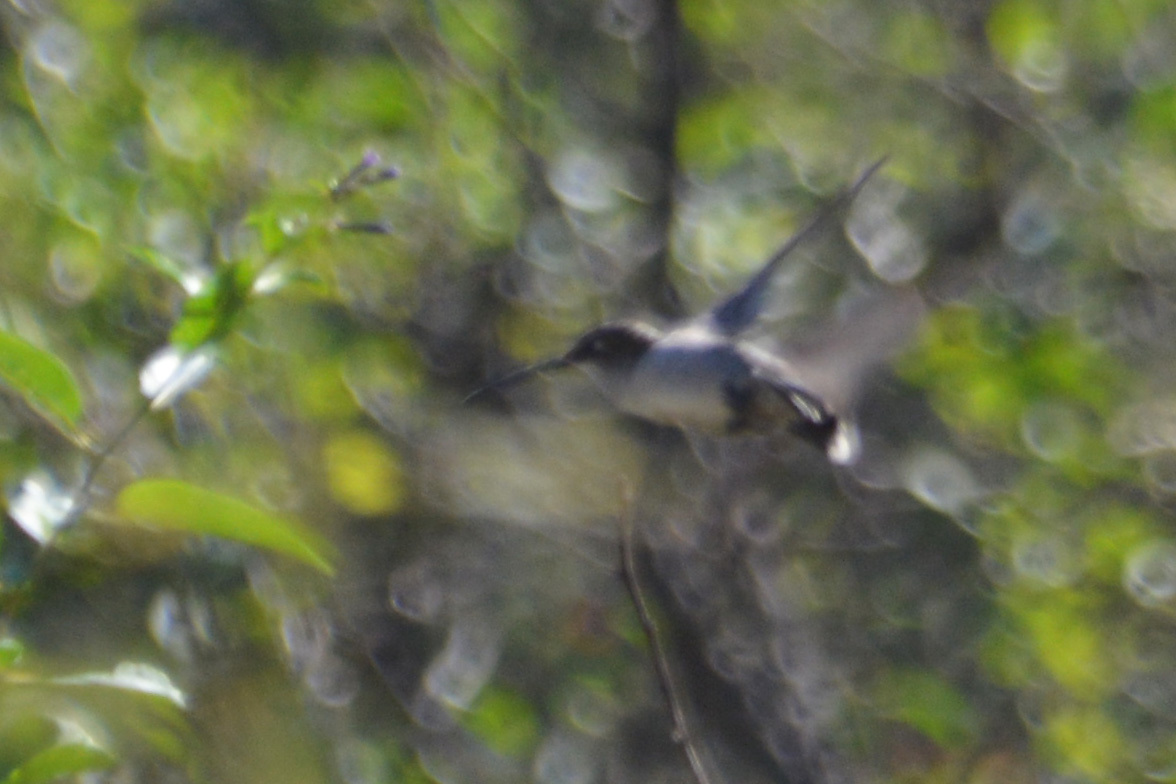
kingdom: Animalia
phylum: Chordata
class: Aves
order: Apodiformes
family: Trochilidae
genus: Heliomaster
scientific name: Heliomaster furcifer
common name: Blue-tufted starthroat
